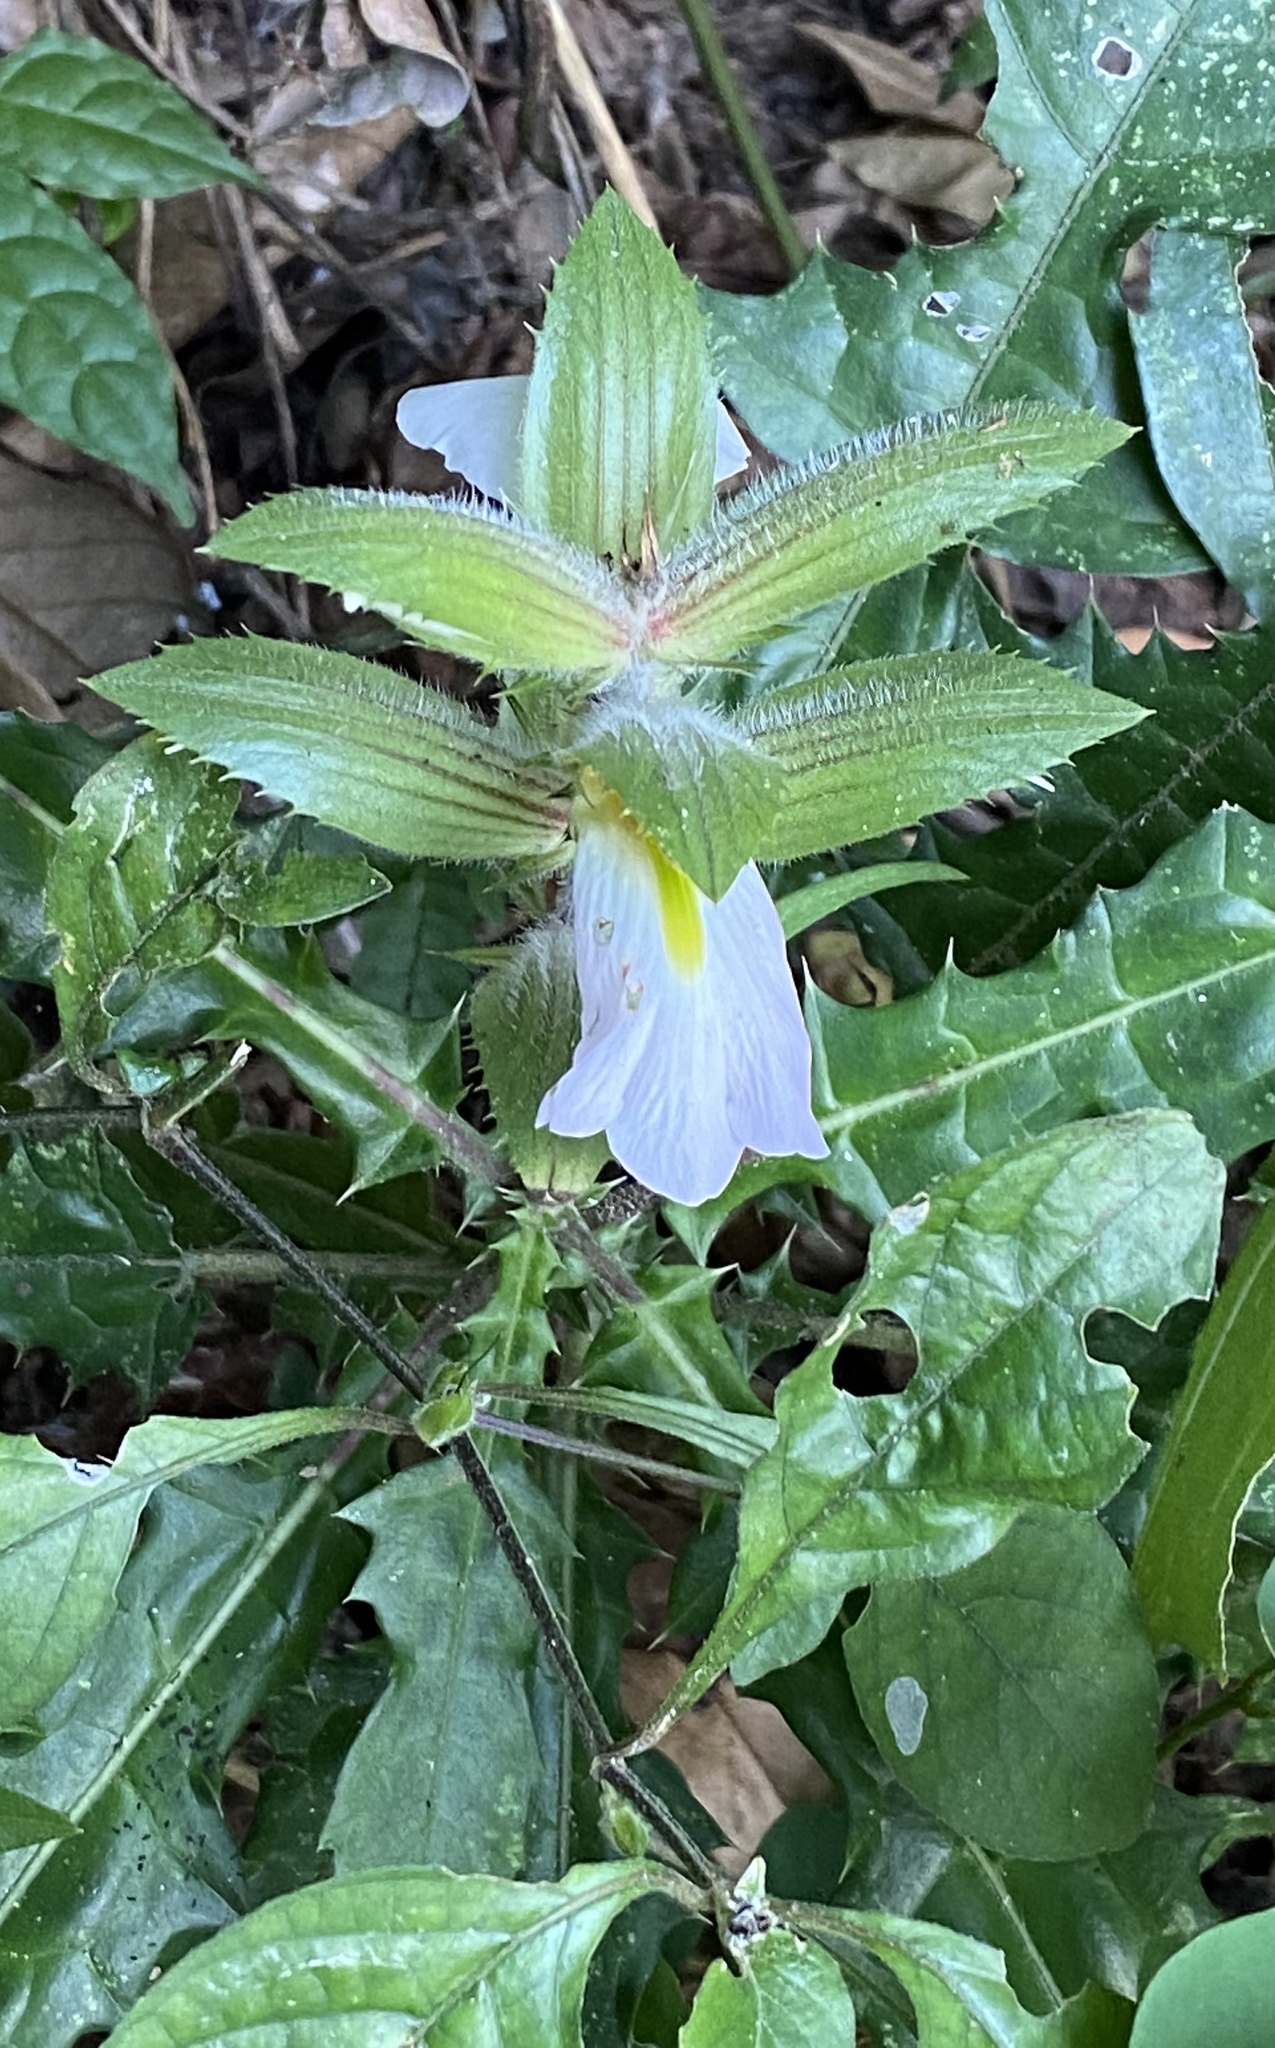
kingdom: Plantae
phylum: Tracheophyta
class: Magnoliopsida
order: Lamiales
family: Acanthaceae
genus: Acanthus
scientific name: Acanthus guineensis
